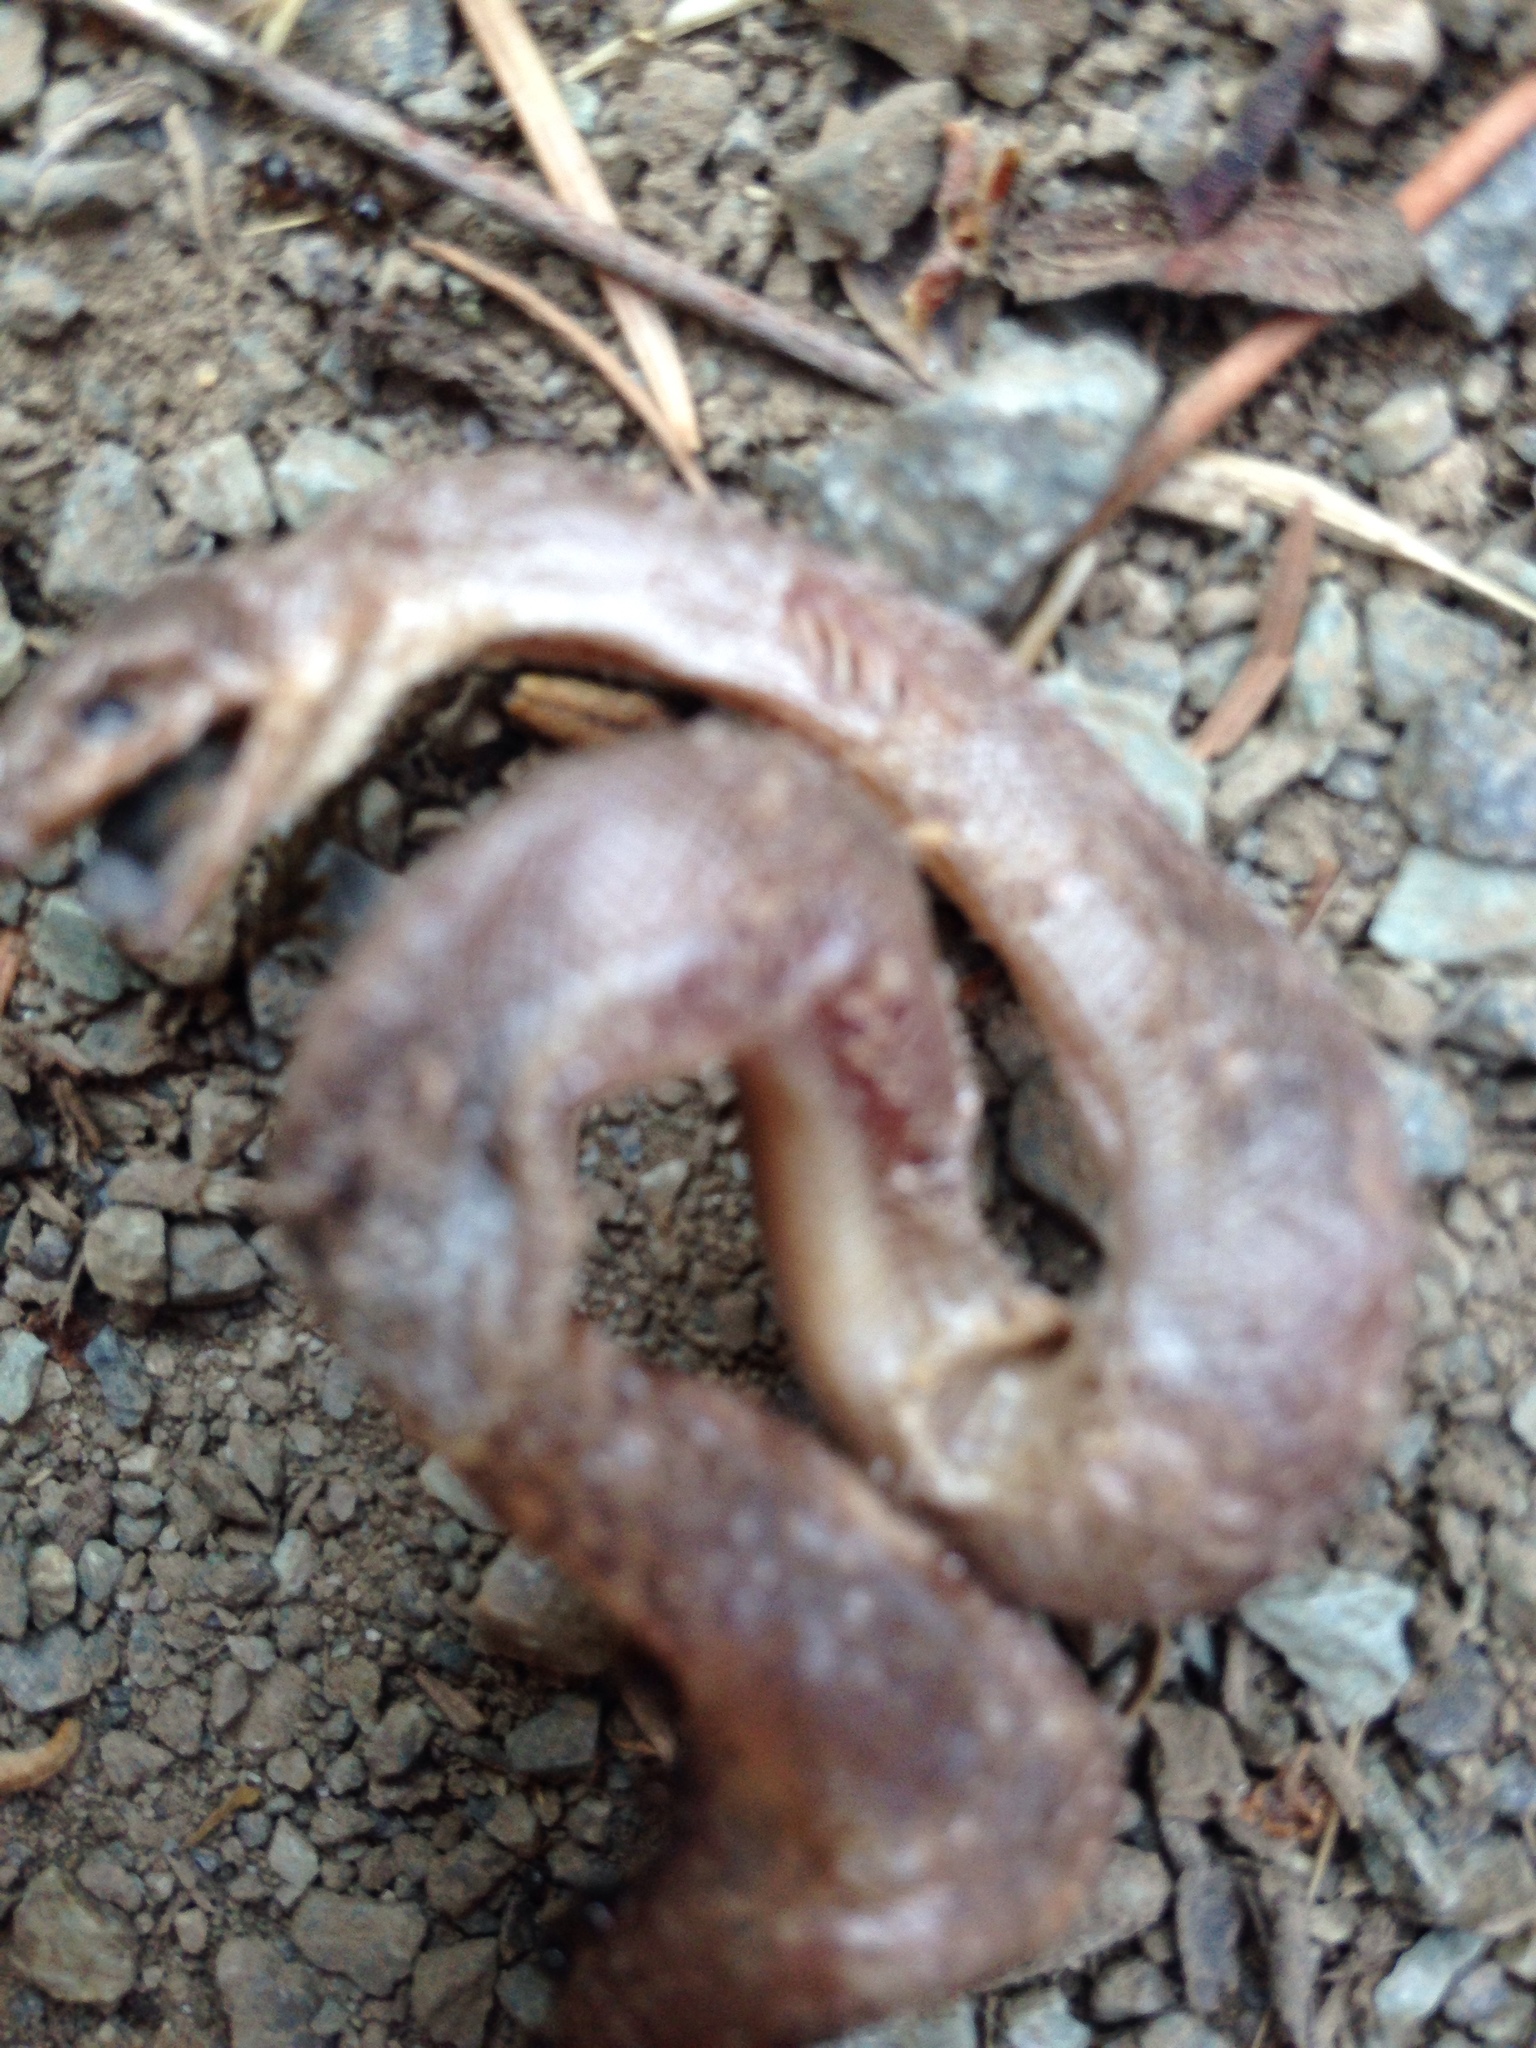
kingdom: Animalia
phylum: Chordata
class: Squamata
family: Boidae
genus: Charina
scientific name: Charina bottae
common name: Northern rubber boa
